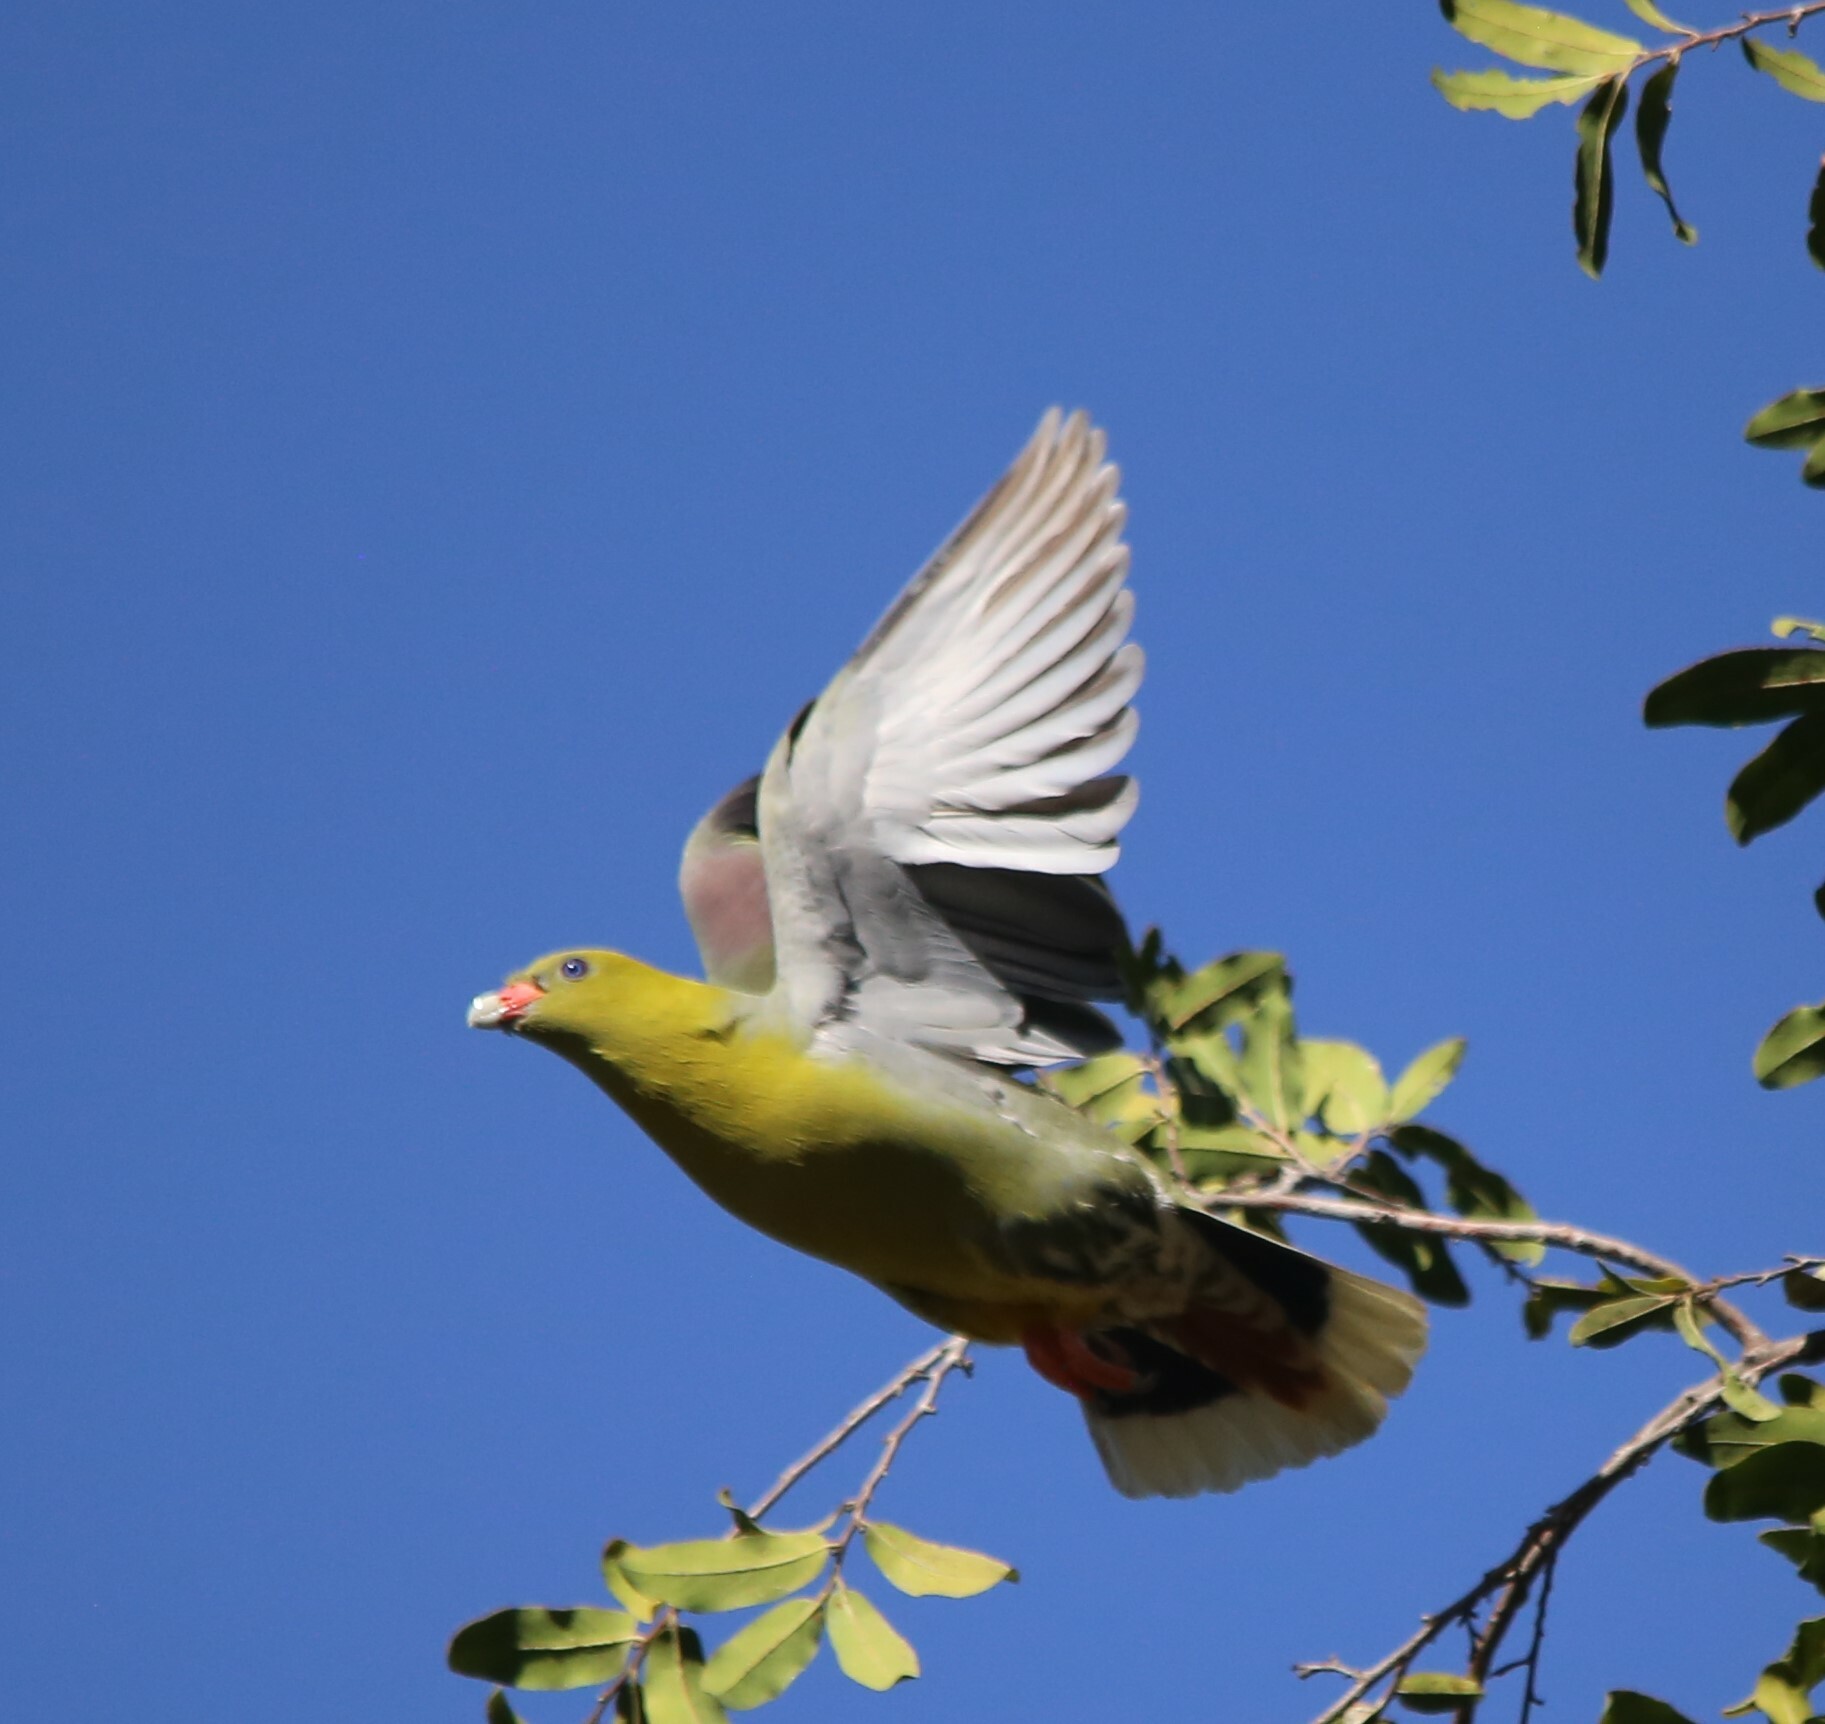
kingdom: Animalia
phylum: Chordata
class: Aves
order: Columbiformes
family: Columbidae
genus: Treron
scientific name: Treron calvus
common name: African green pigeon
